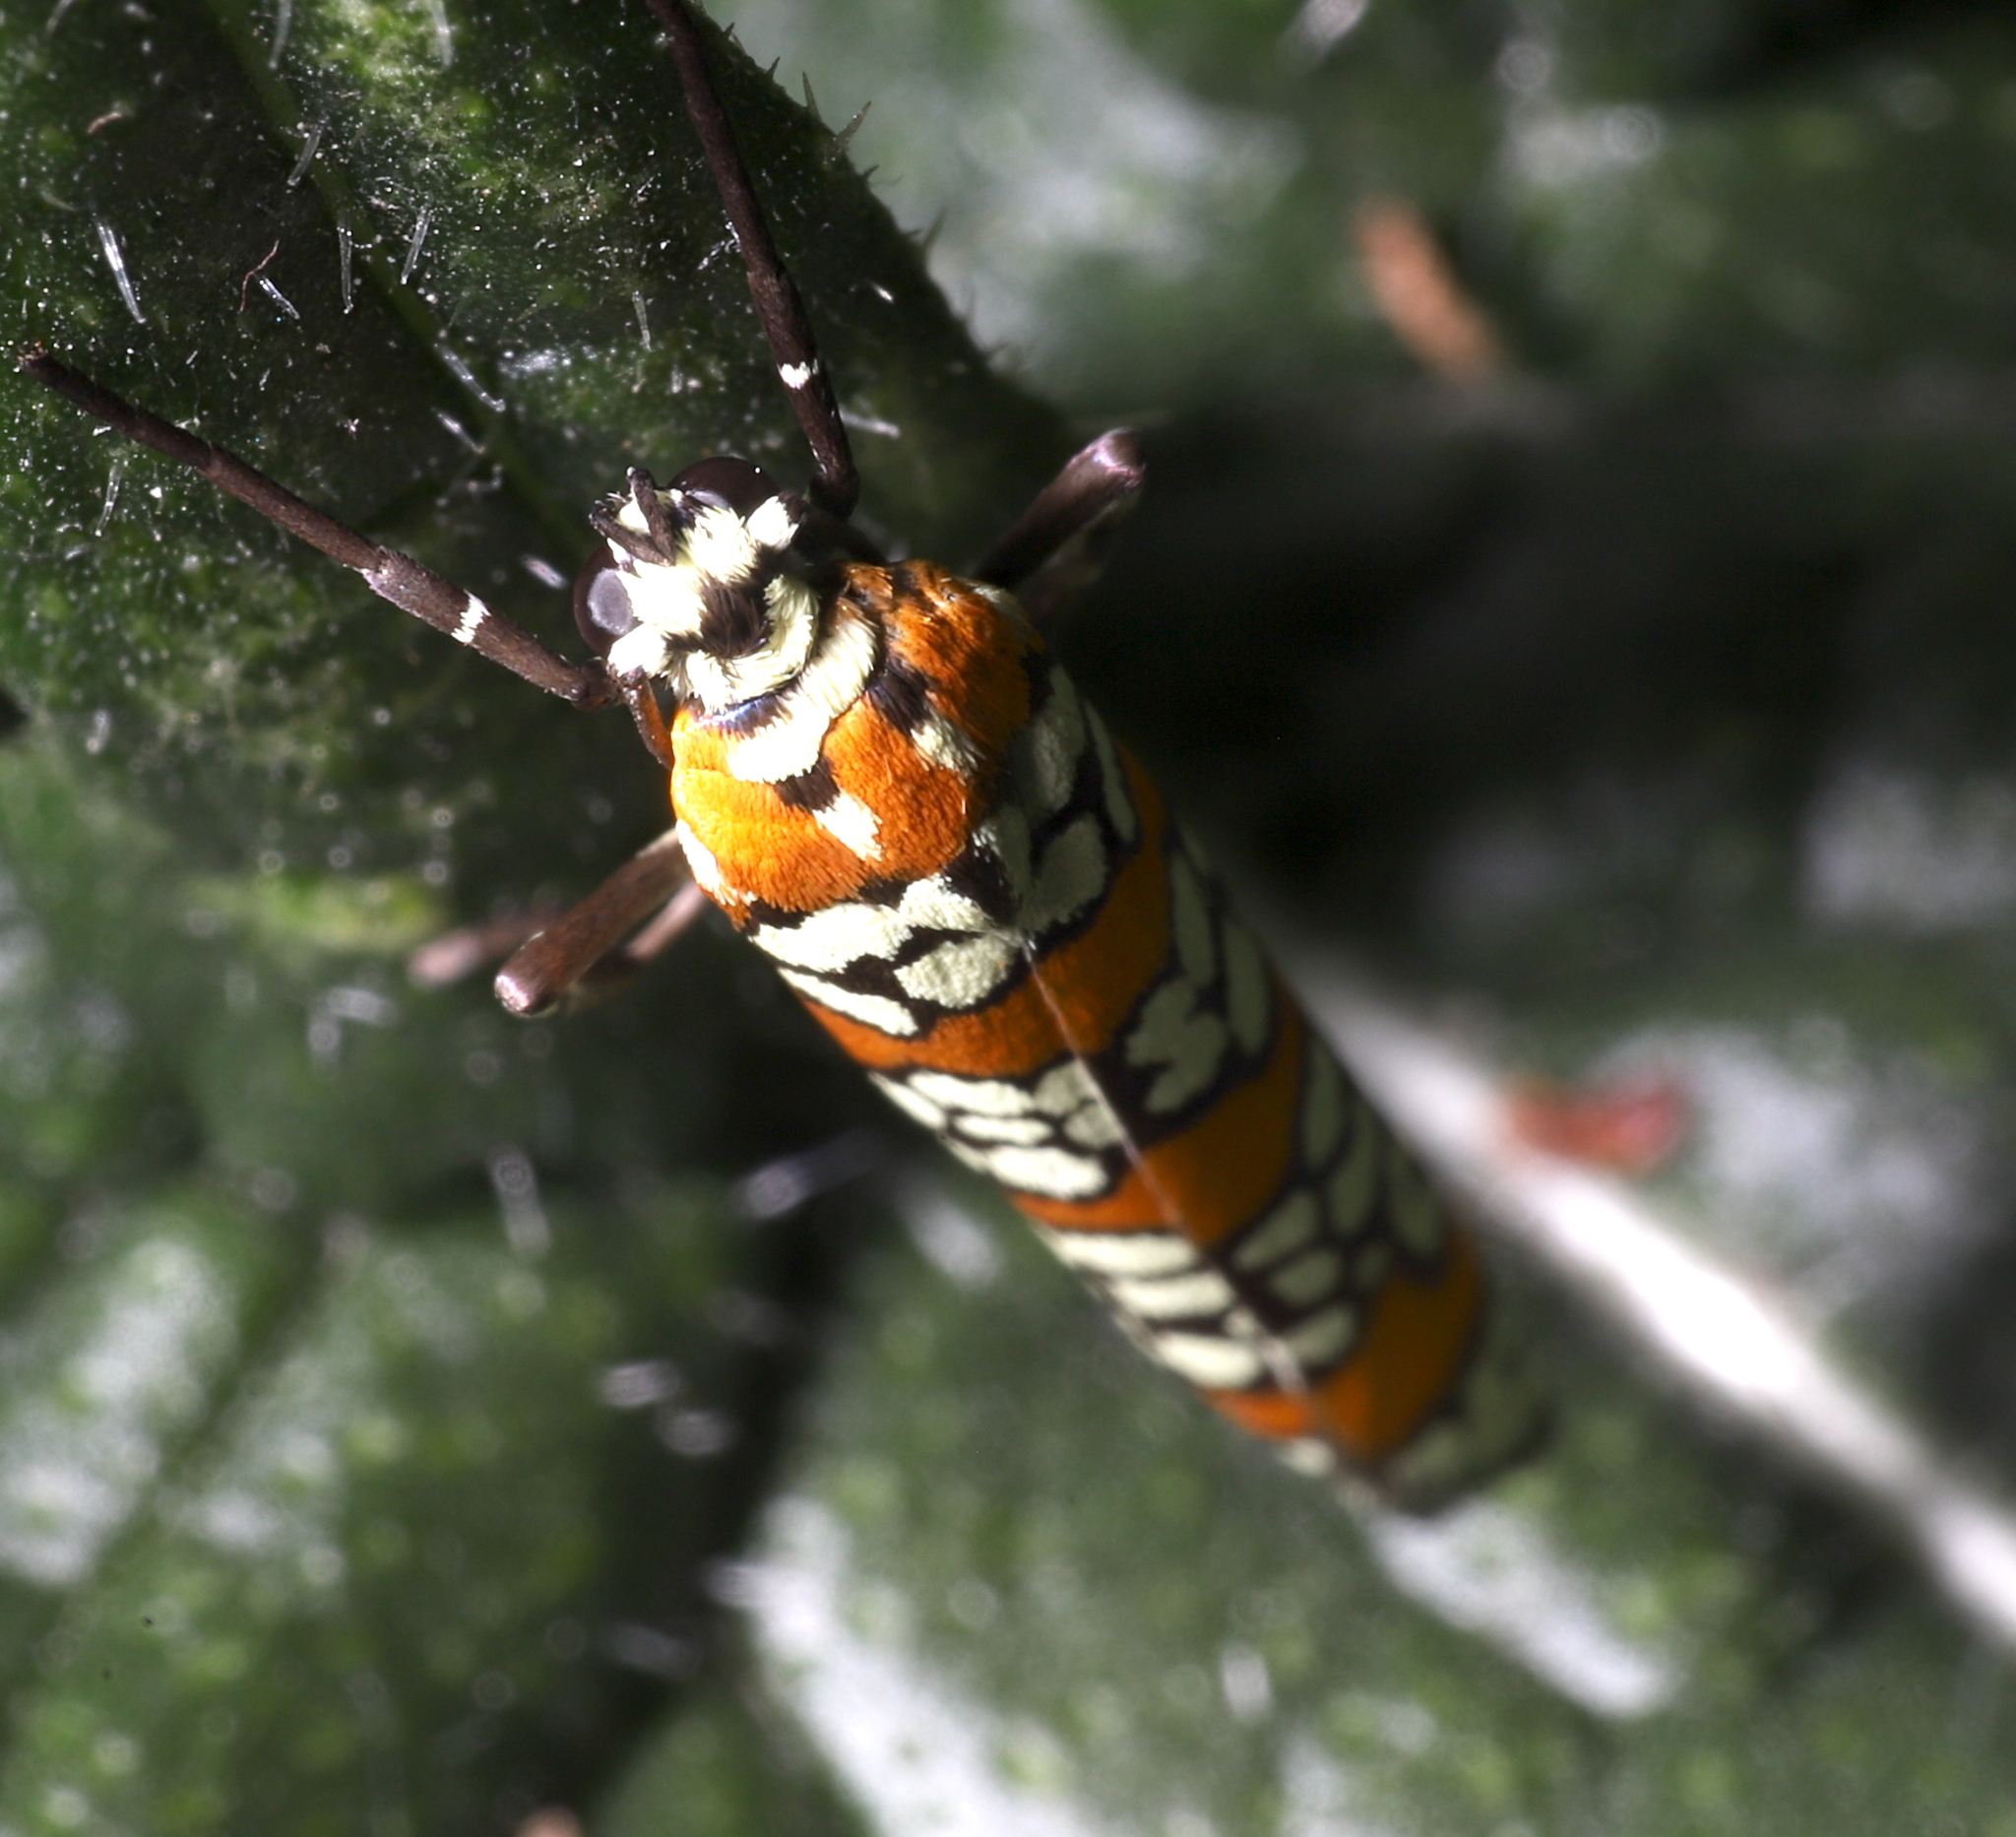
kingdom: Animalia
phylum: Arthropoda
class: Insecta
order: Hymenoptera
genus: Eutricharaea
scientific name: Eutricharaea
